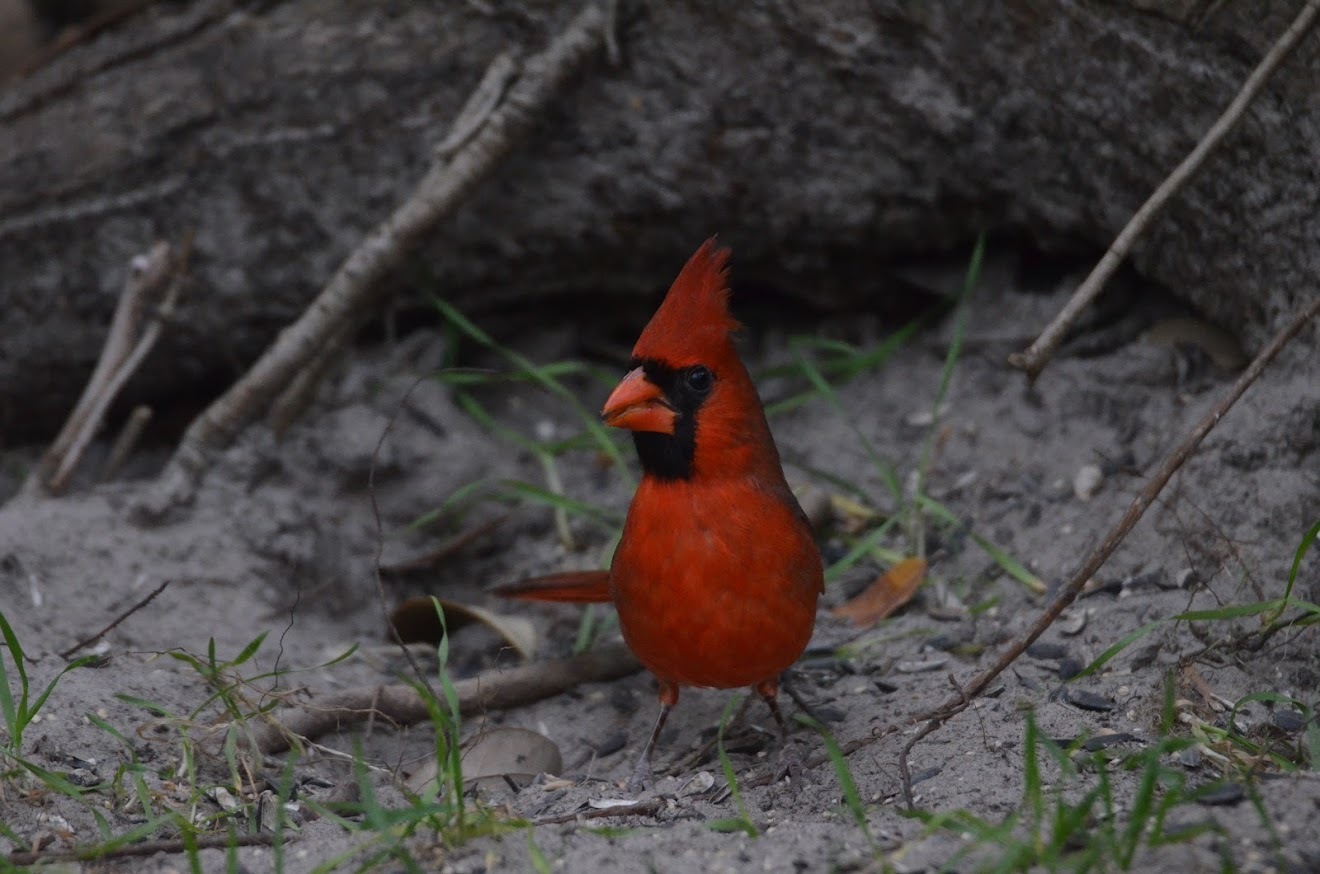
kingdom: Animalia
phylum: Chordata
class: Aves
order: Passeriformes
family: Cardinalidae
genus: Cardinalis
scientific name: Cardinalis cardinalis
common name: Northern cardinal
